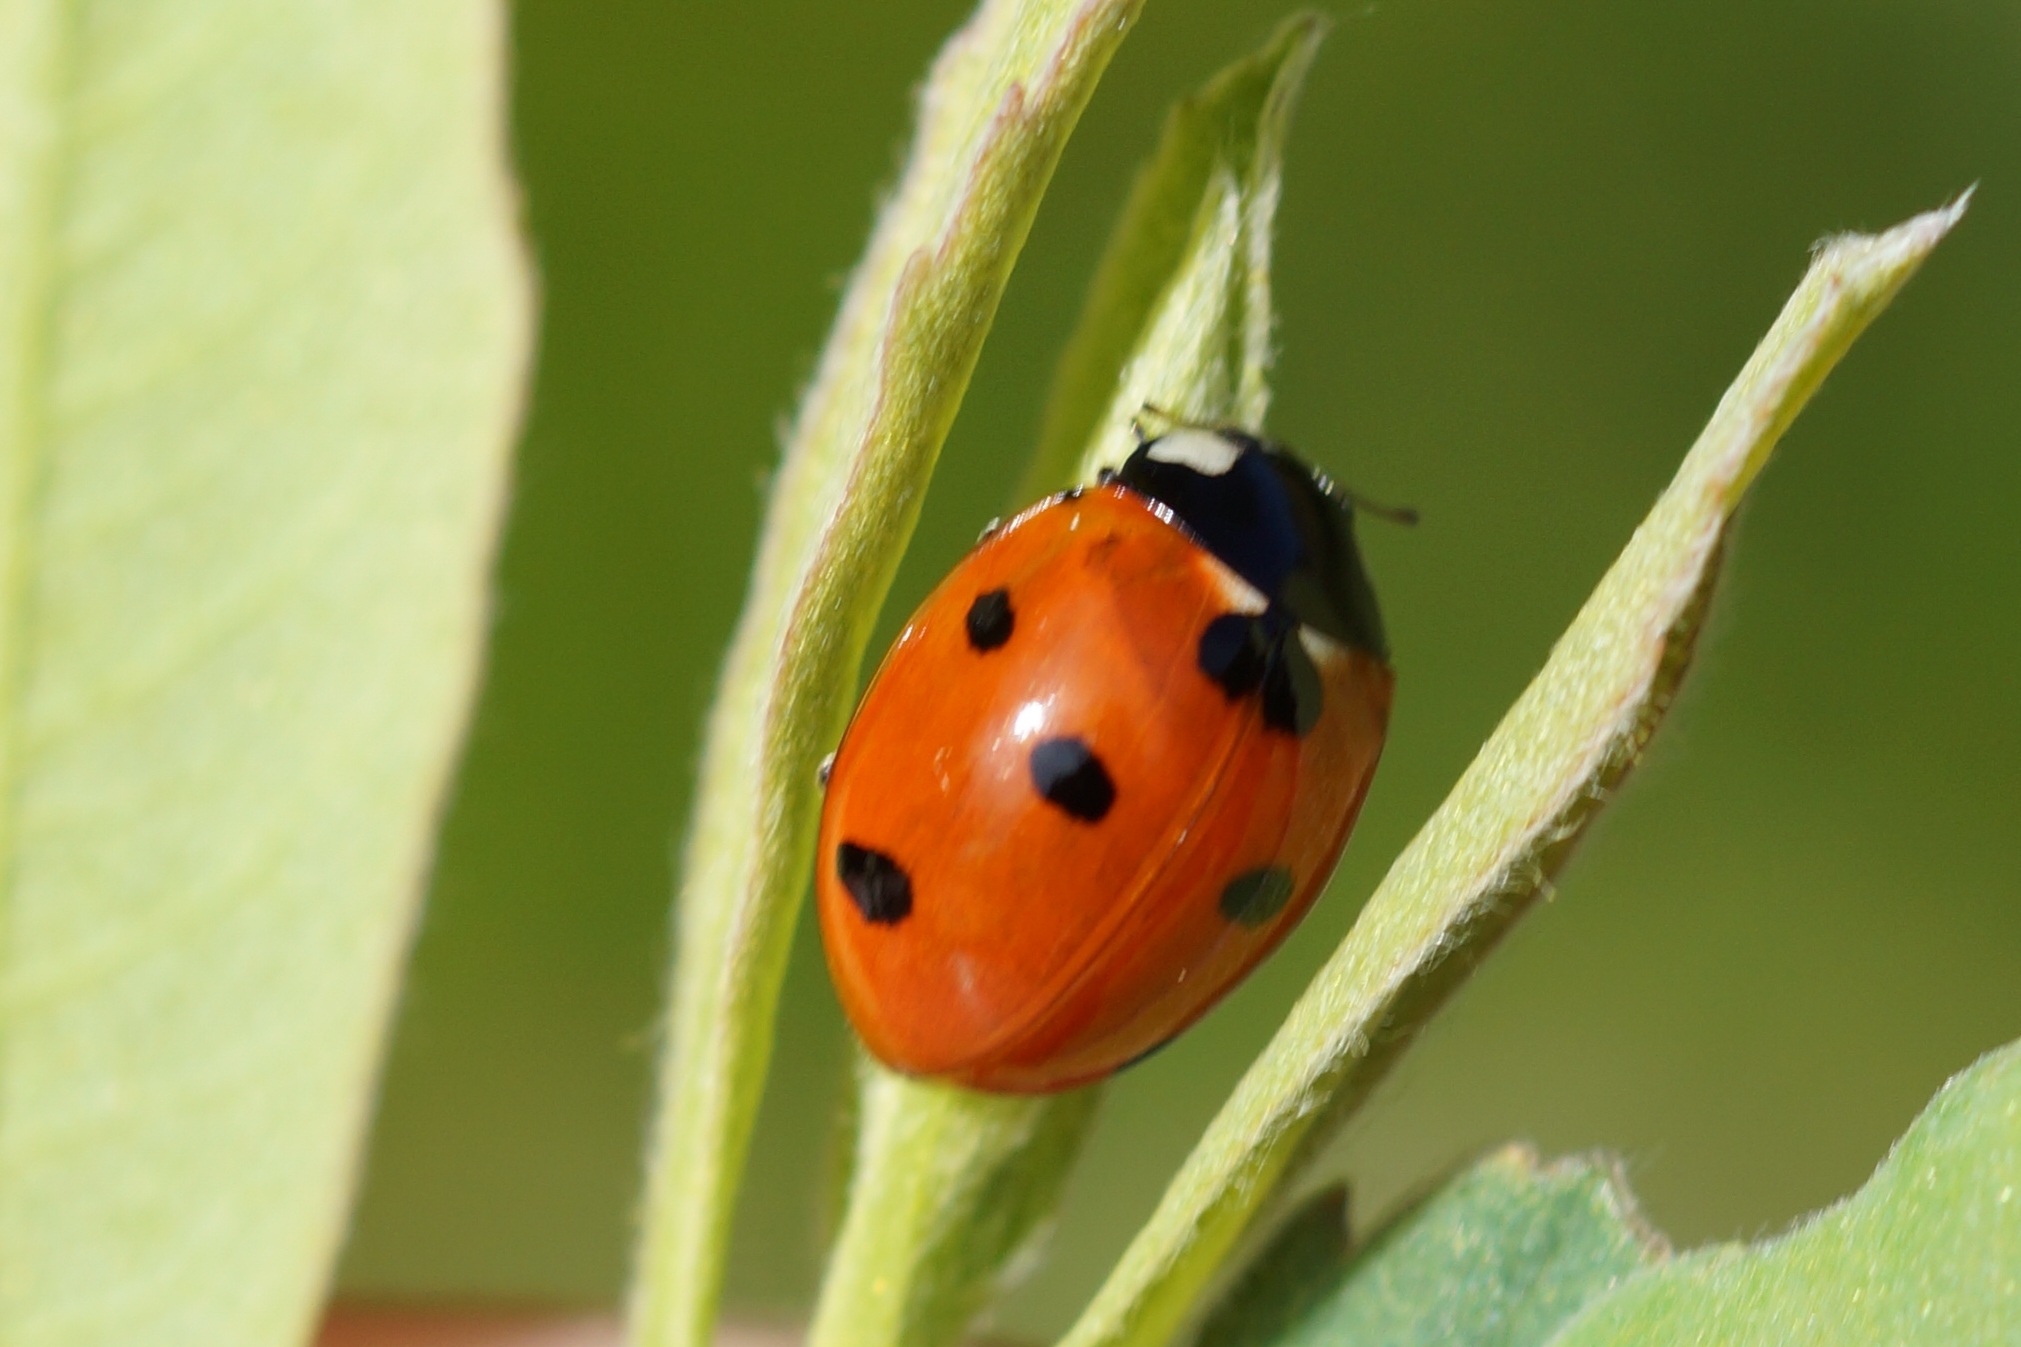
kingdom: Animalia
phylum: Arthropoda
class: Insecta
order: Coleoptera
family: Coccinellidae
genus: Coccinella
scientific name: Coccinella septempunctata
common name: Sevenspotted lady beetle
